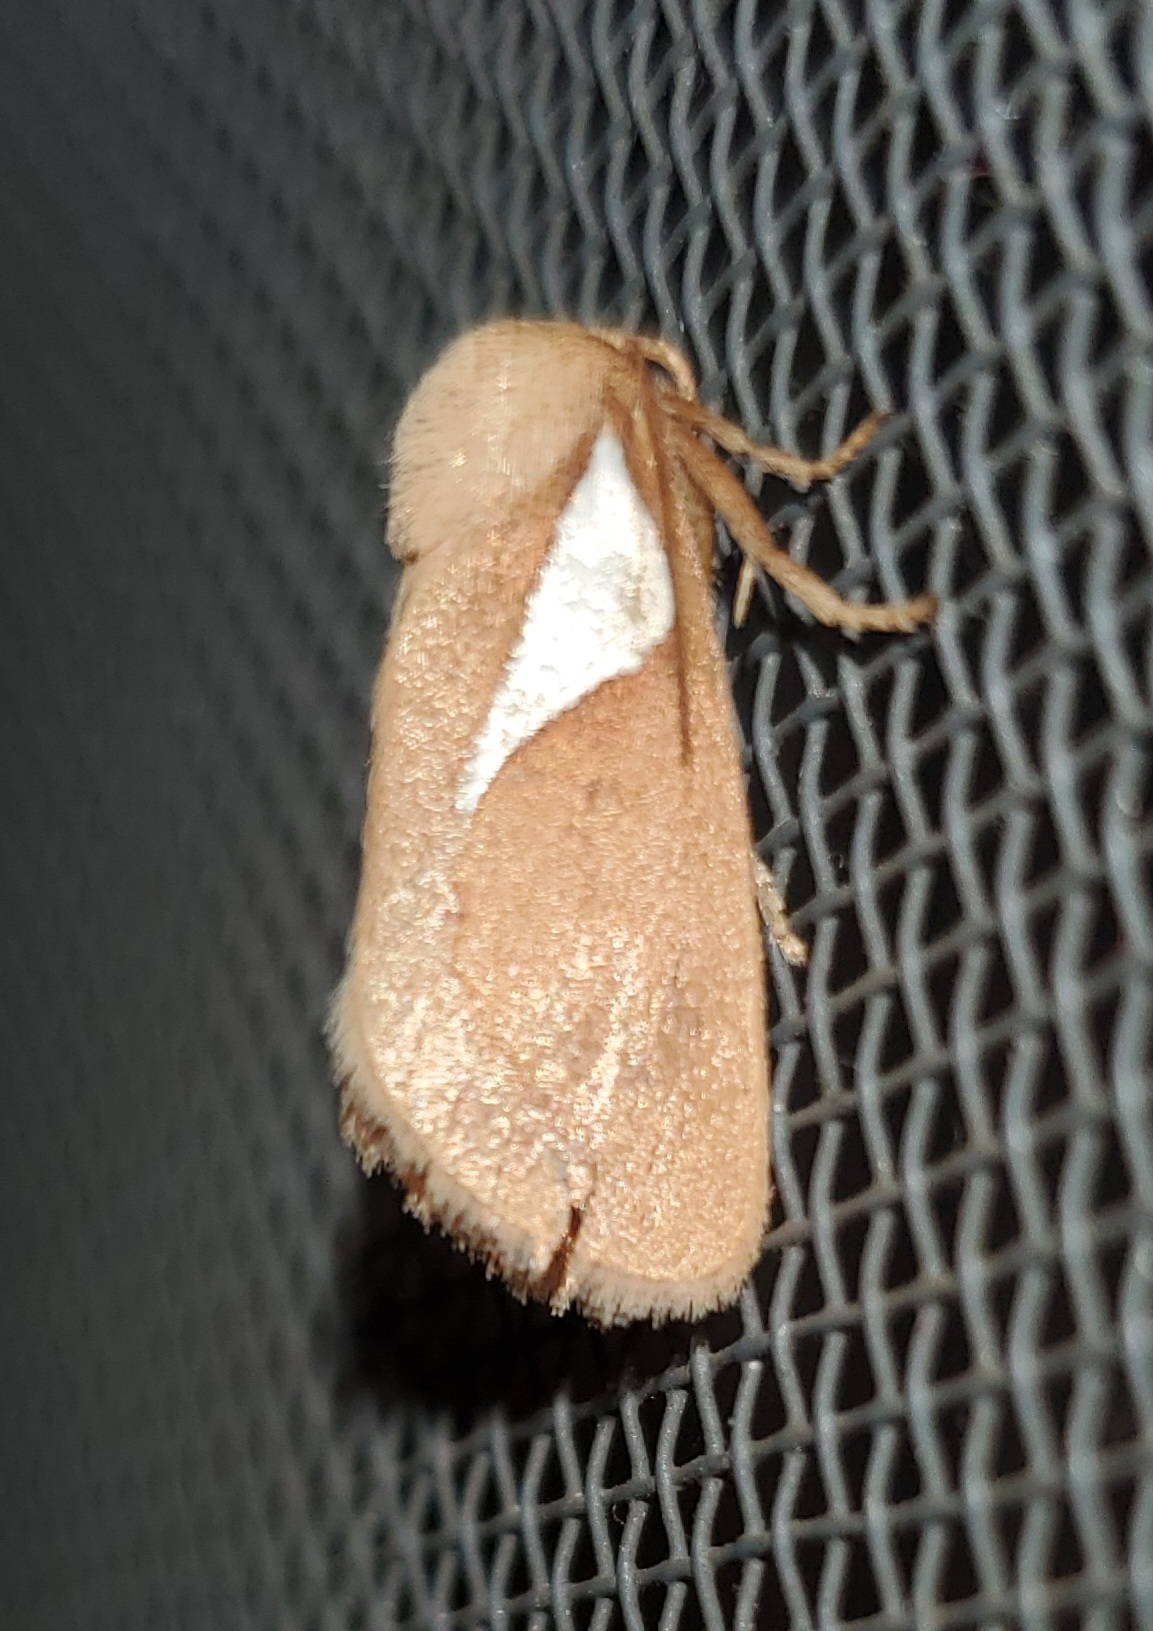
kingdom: Animalia
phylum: Arthropoda
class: Insecta
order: Lepidoptera
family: Limacodidae
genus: Prolimacodes
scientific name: Prolimacodes trigona
